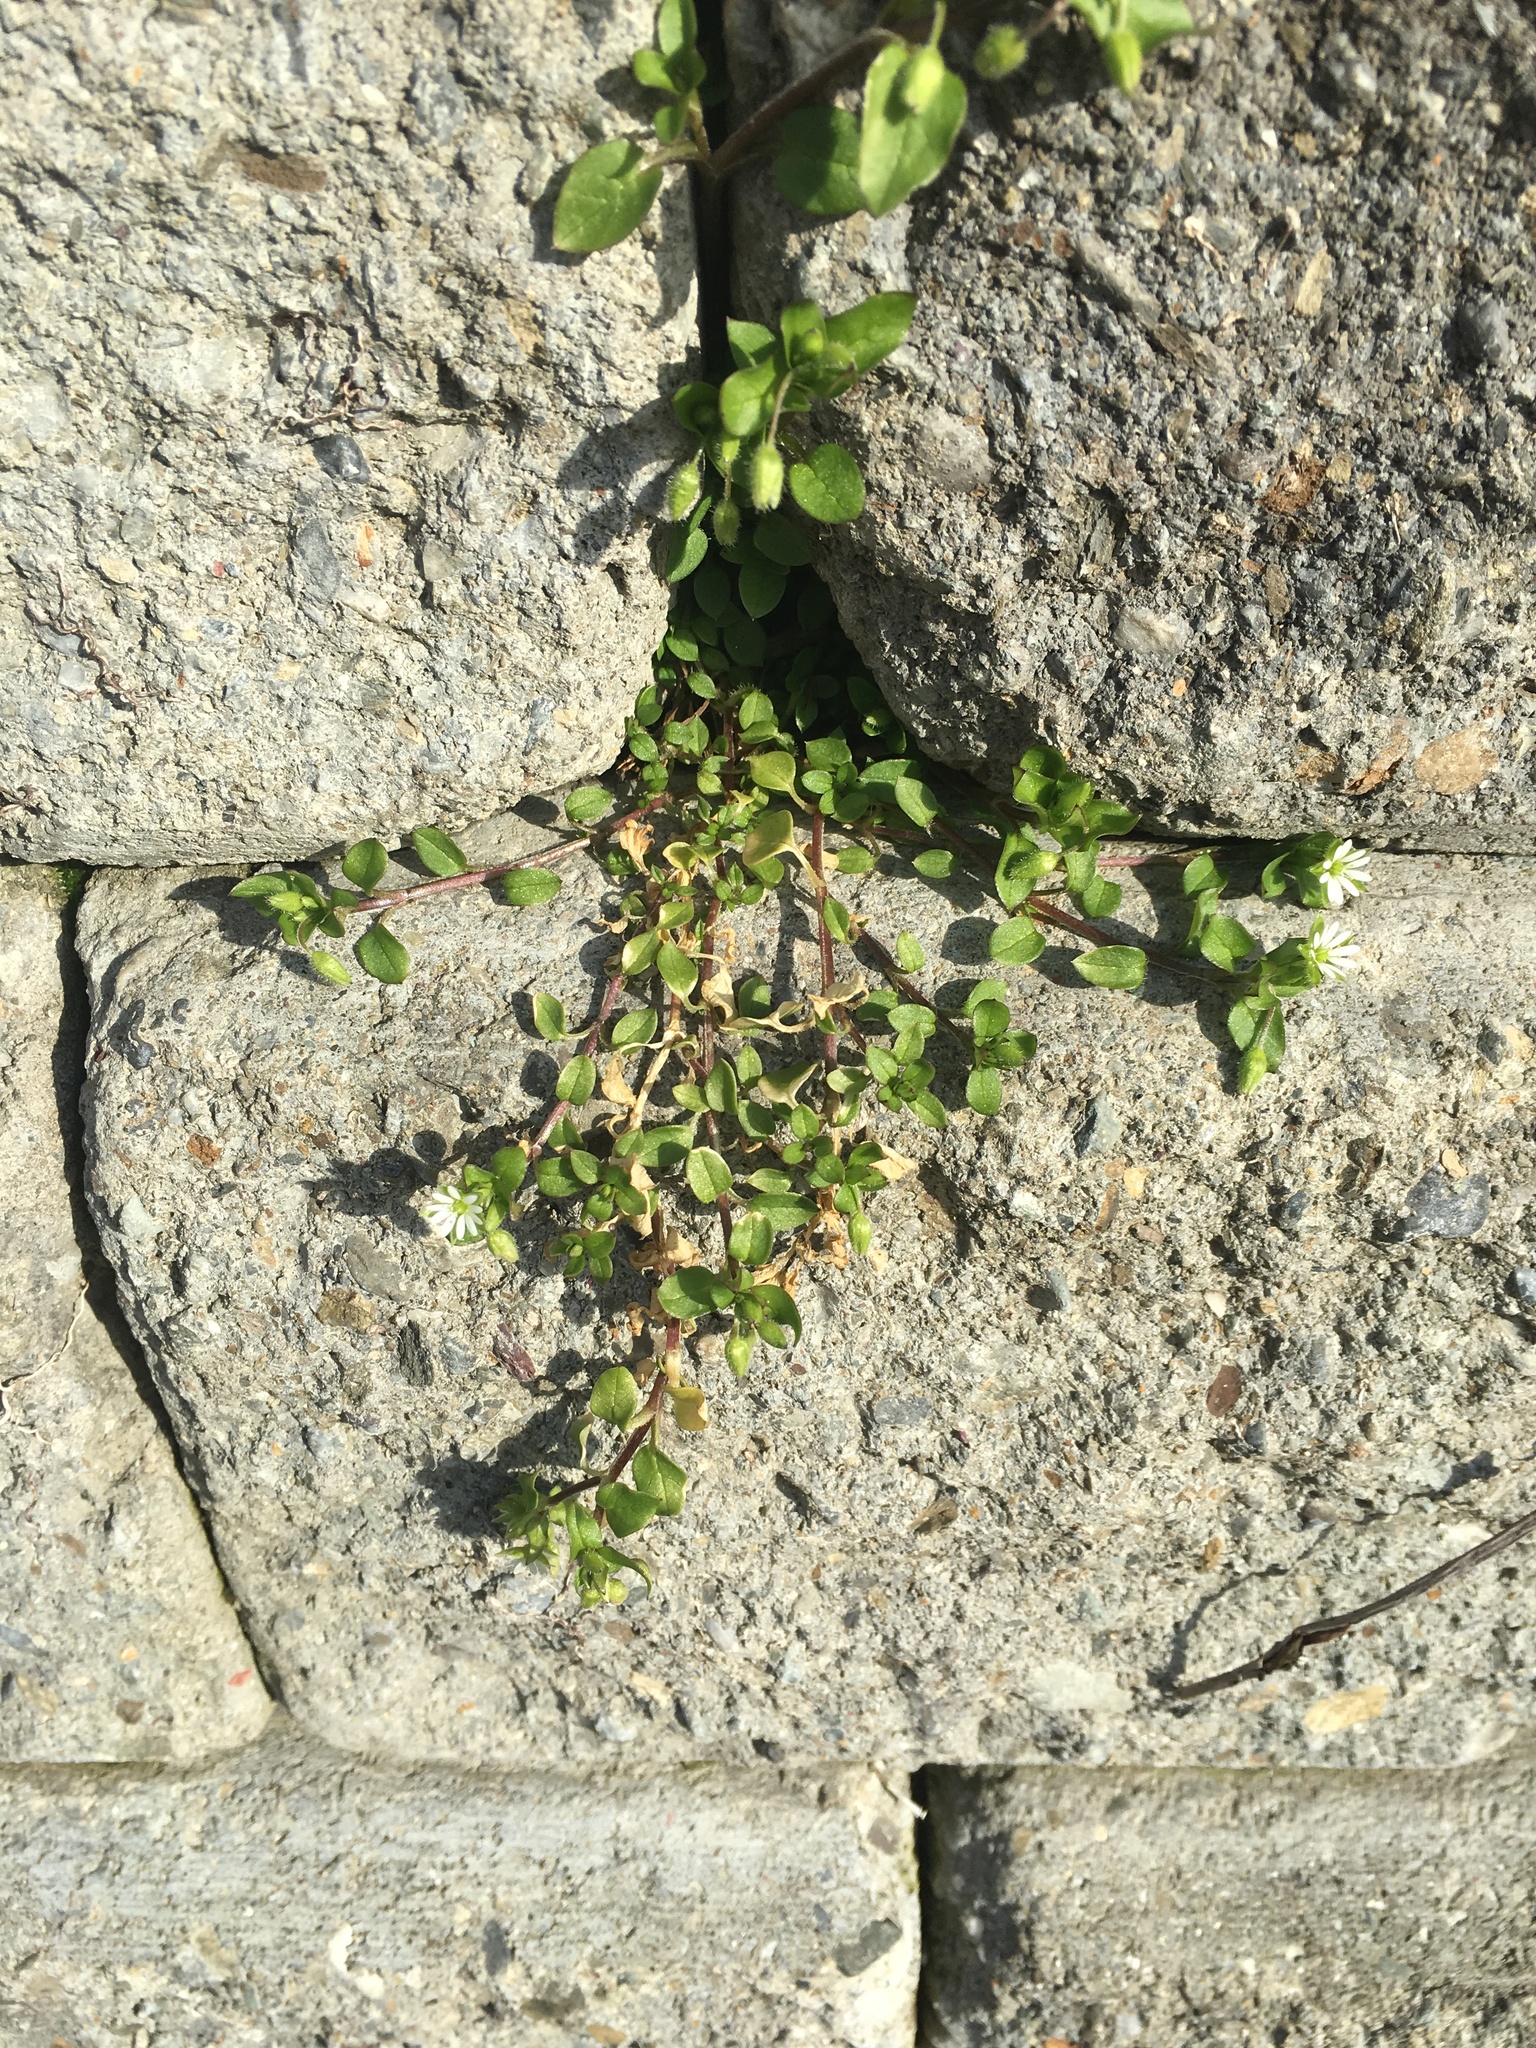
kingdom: Plantae
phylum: Tracheophyta
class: Magnoliopsida
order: Caryophyllales
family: Caryophyllaceae
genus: Stellaria
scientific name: Stellaria media
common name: Common chickweed
